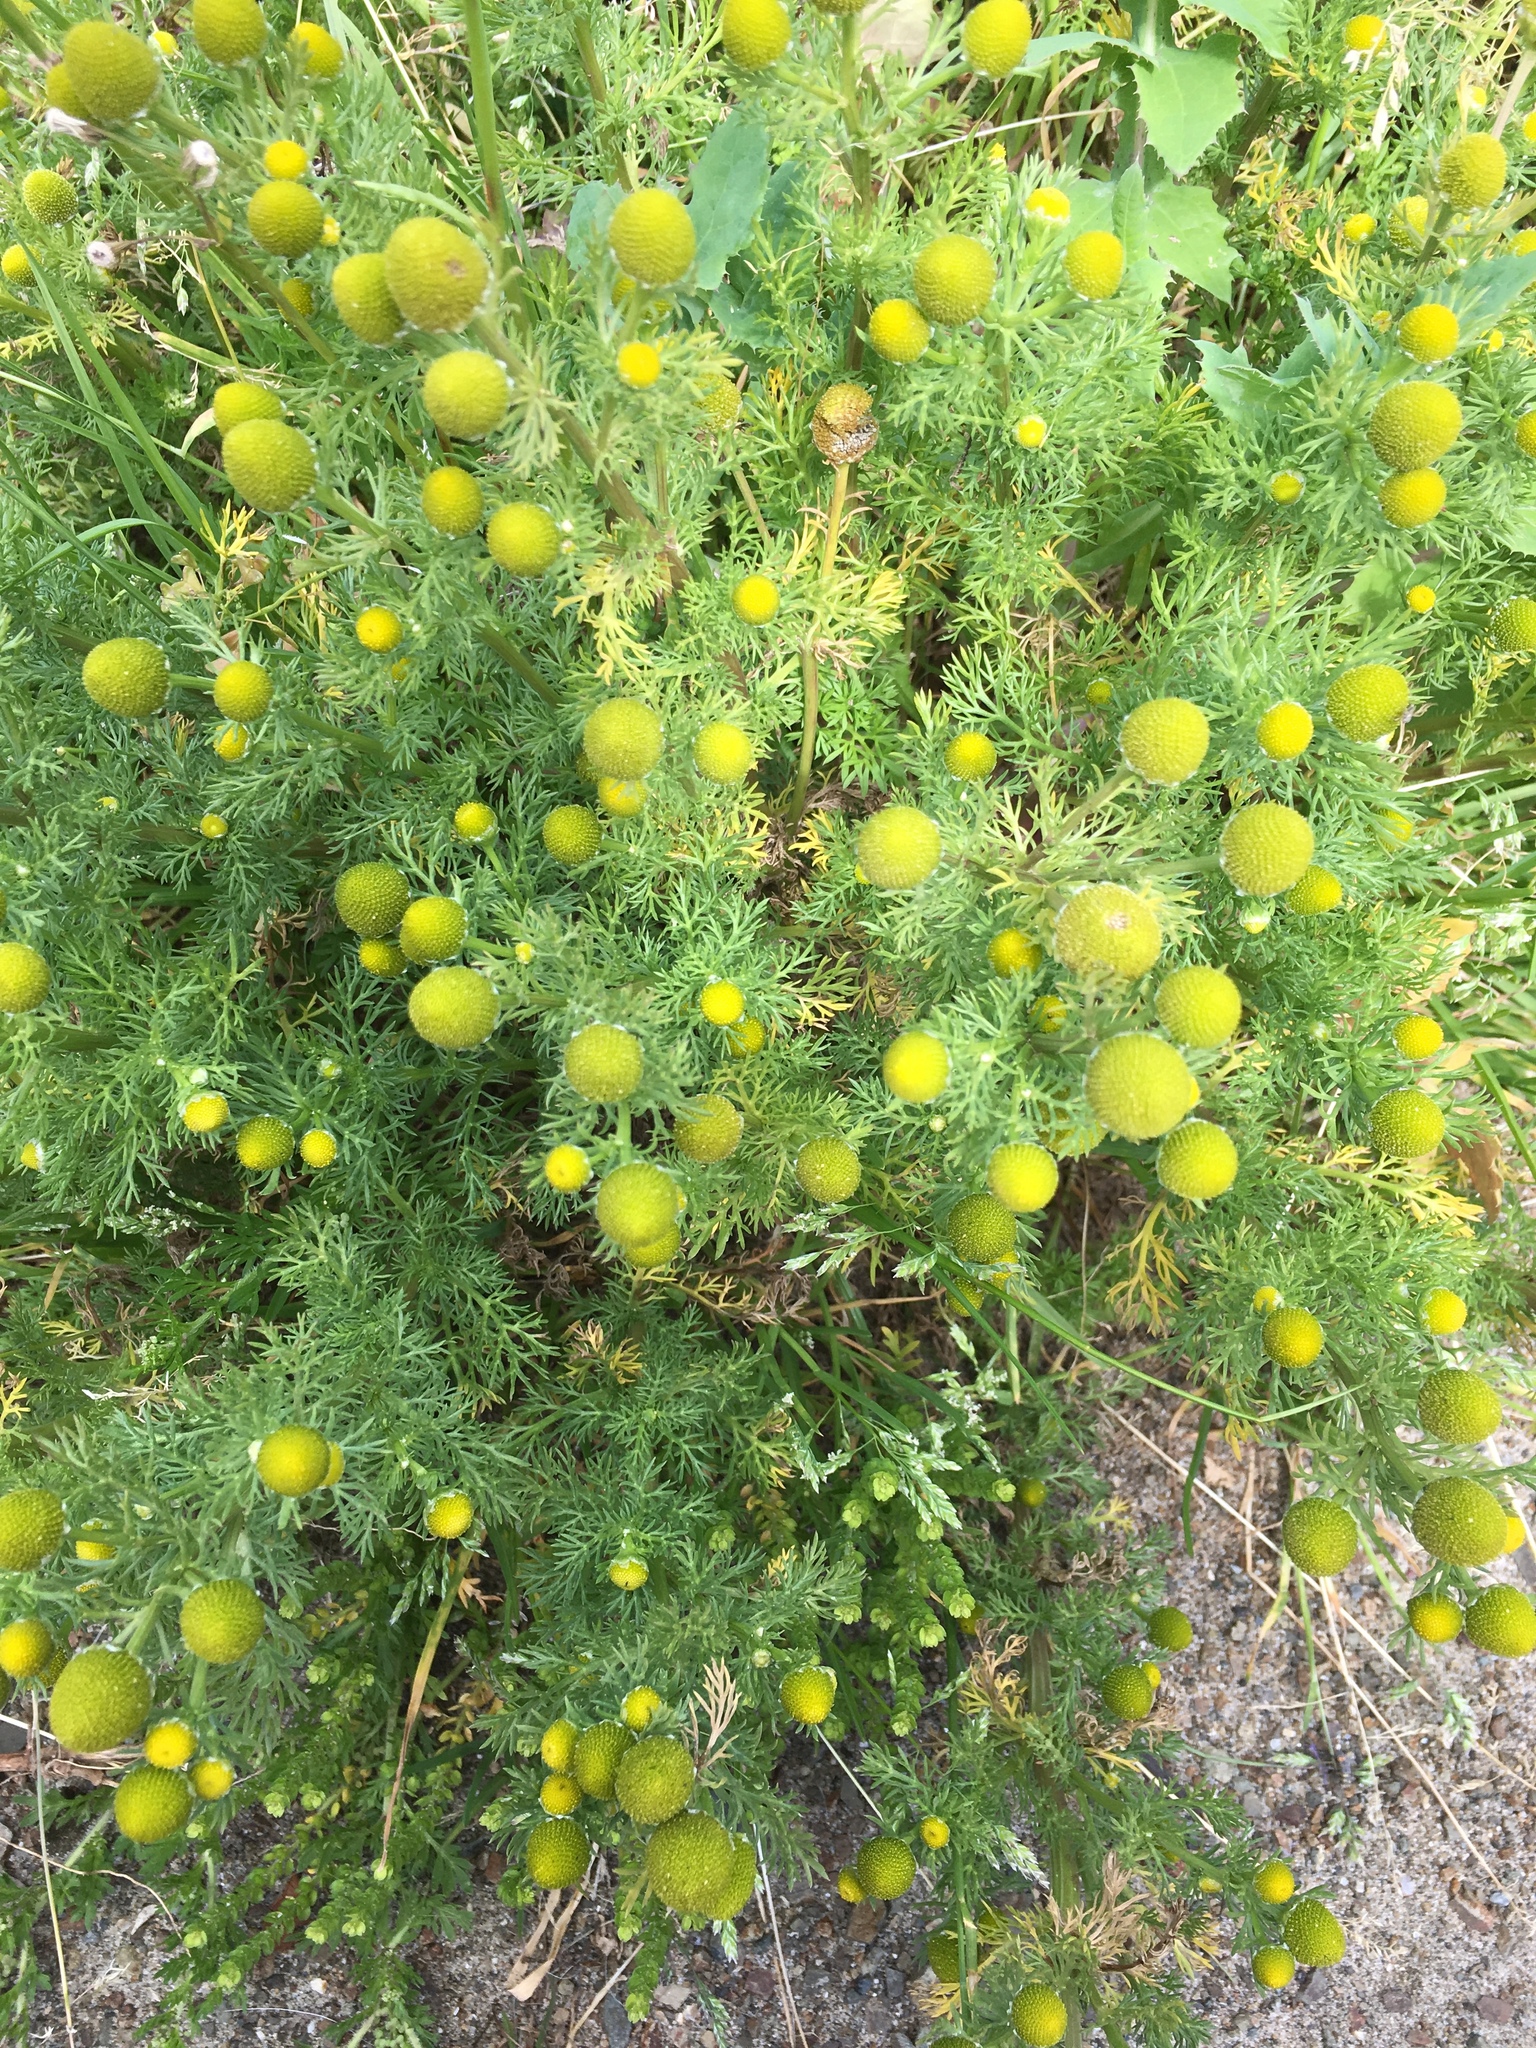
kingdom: Plantae
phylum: Tracheophyta
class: Magnoliopsida
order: Asterales
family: Asteraceae
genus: Matricaria
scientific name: Matricaria discoidea
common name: Disc mayweed
